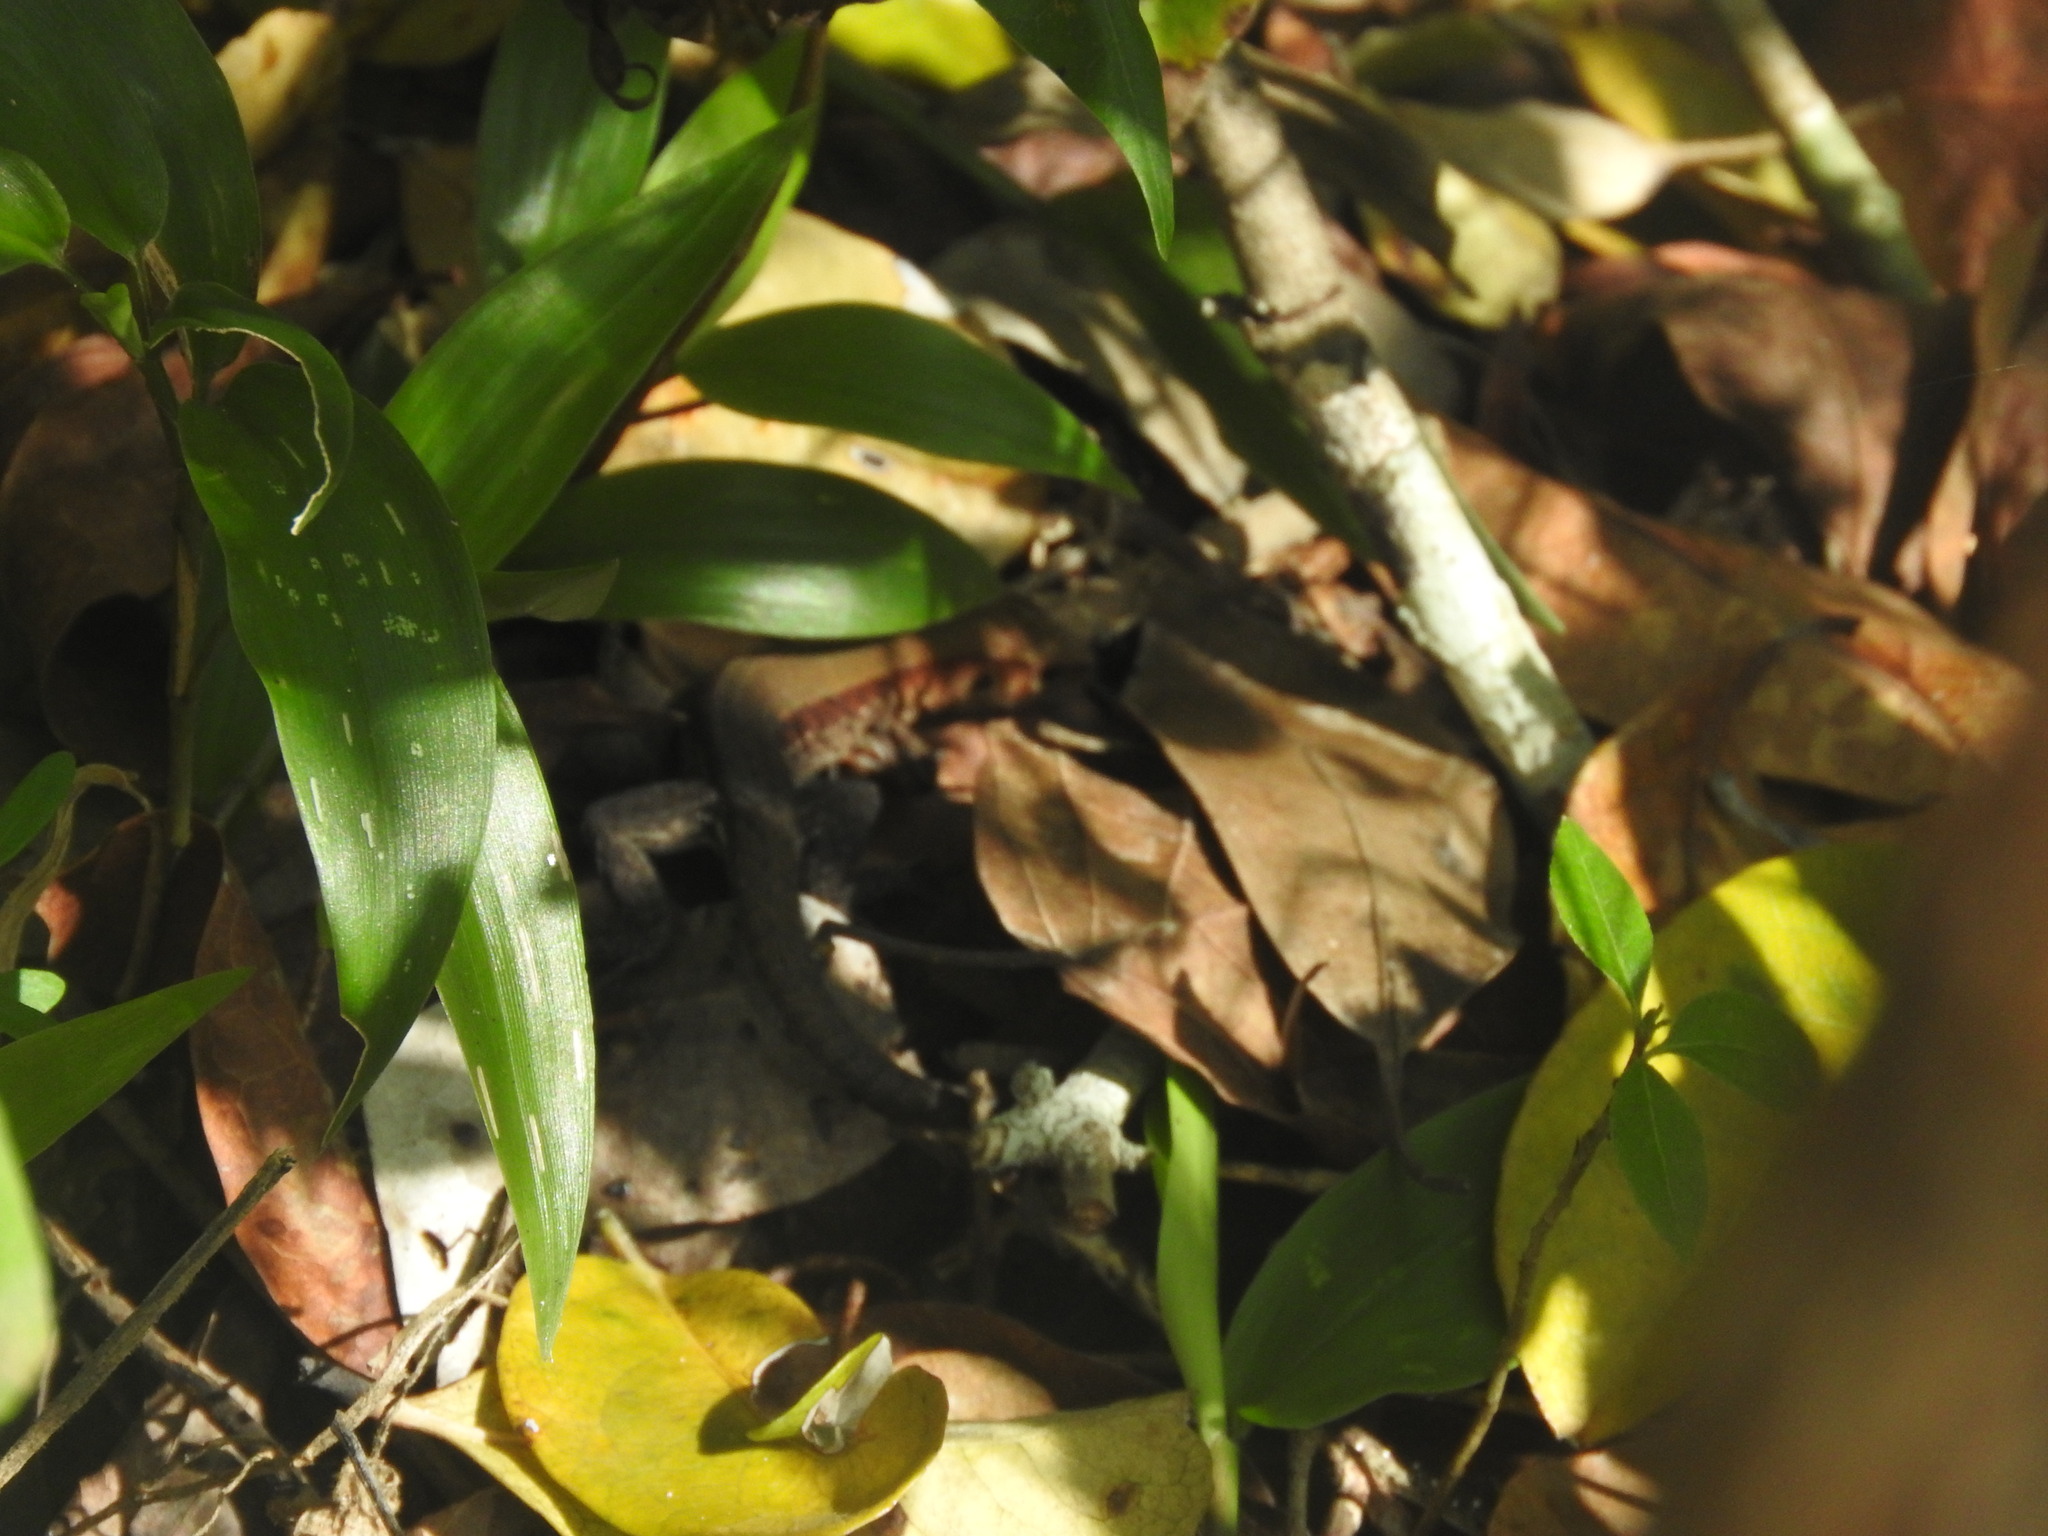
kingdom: Animalia
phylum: Chordata
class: Squamata
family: Teiidae
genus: Holcosus
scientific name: Holcosus gaigeae
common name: Rainbow ameiva
